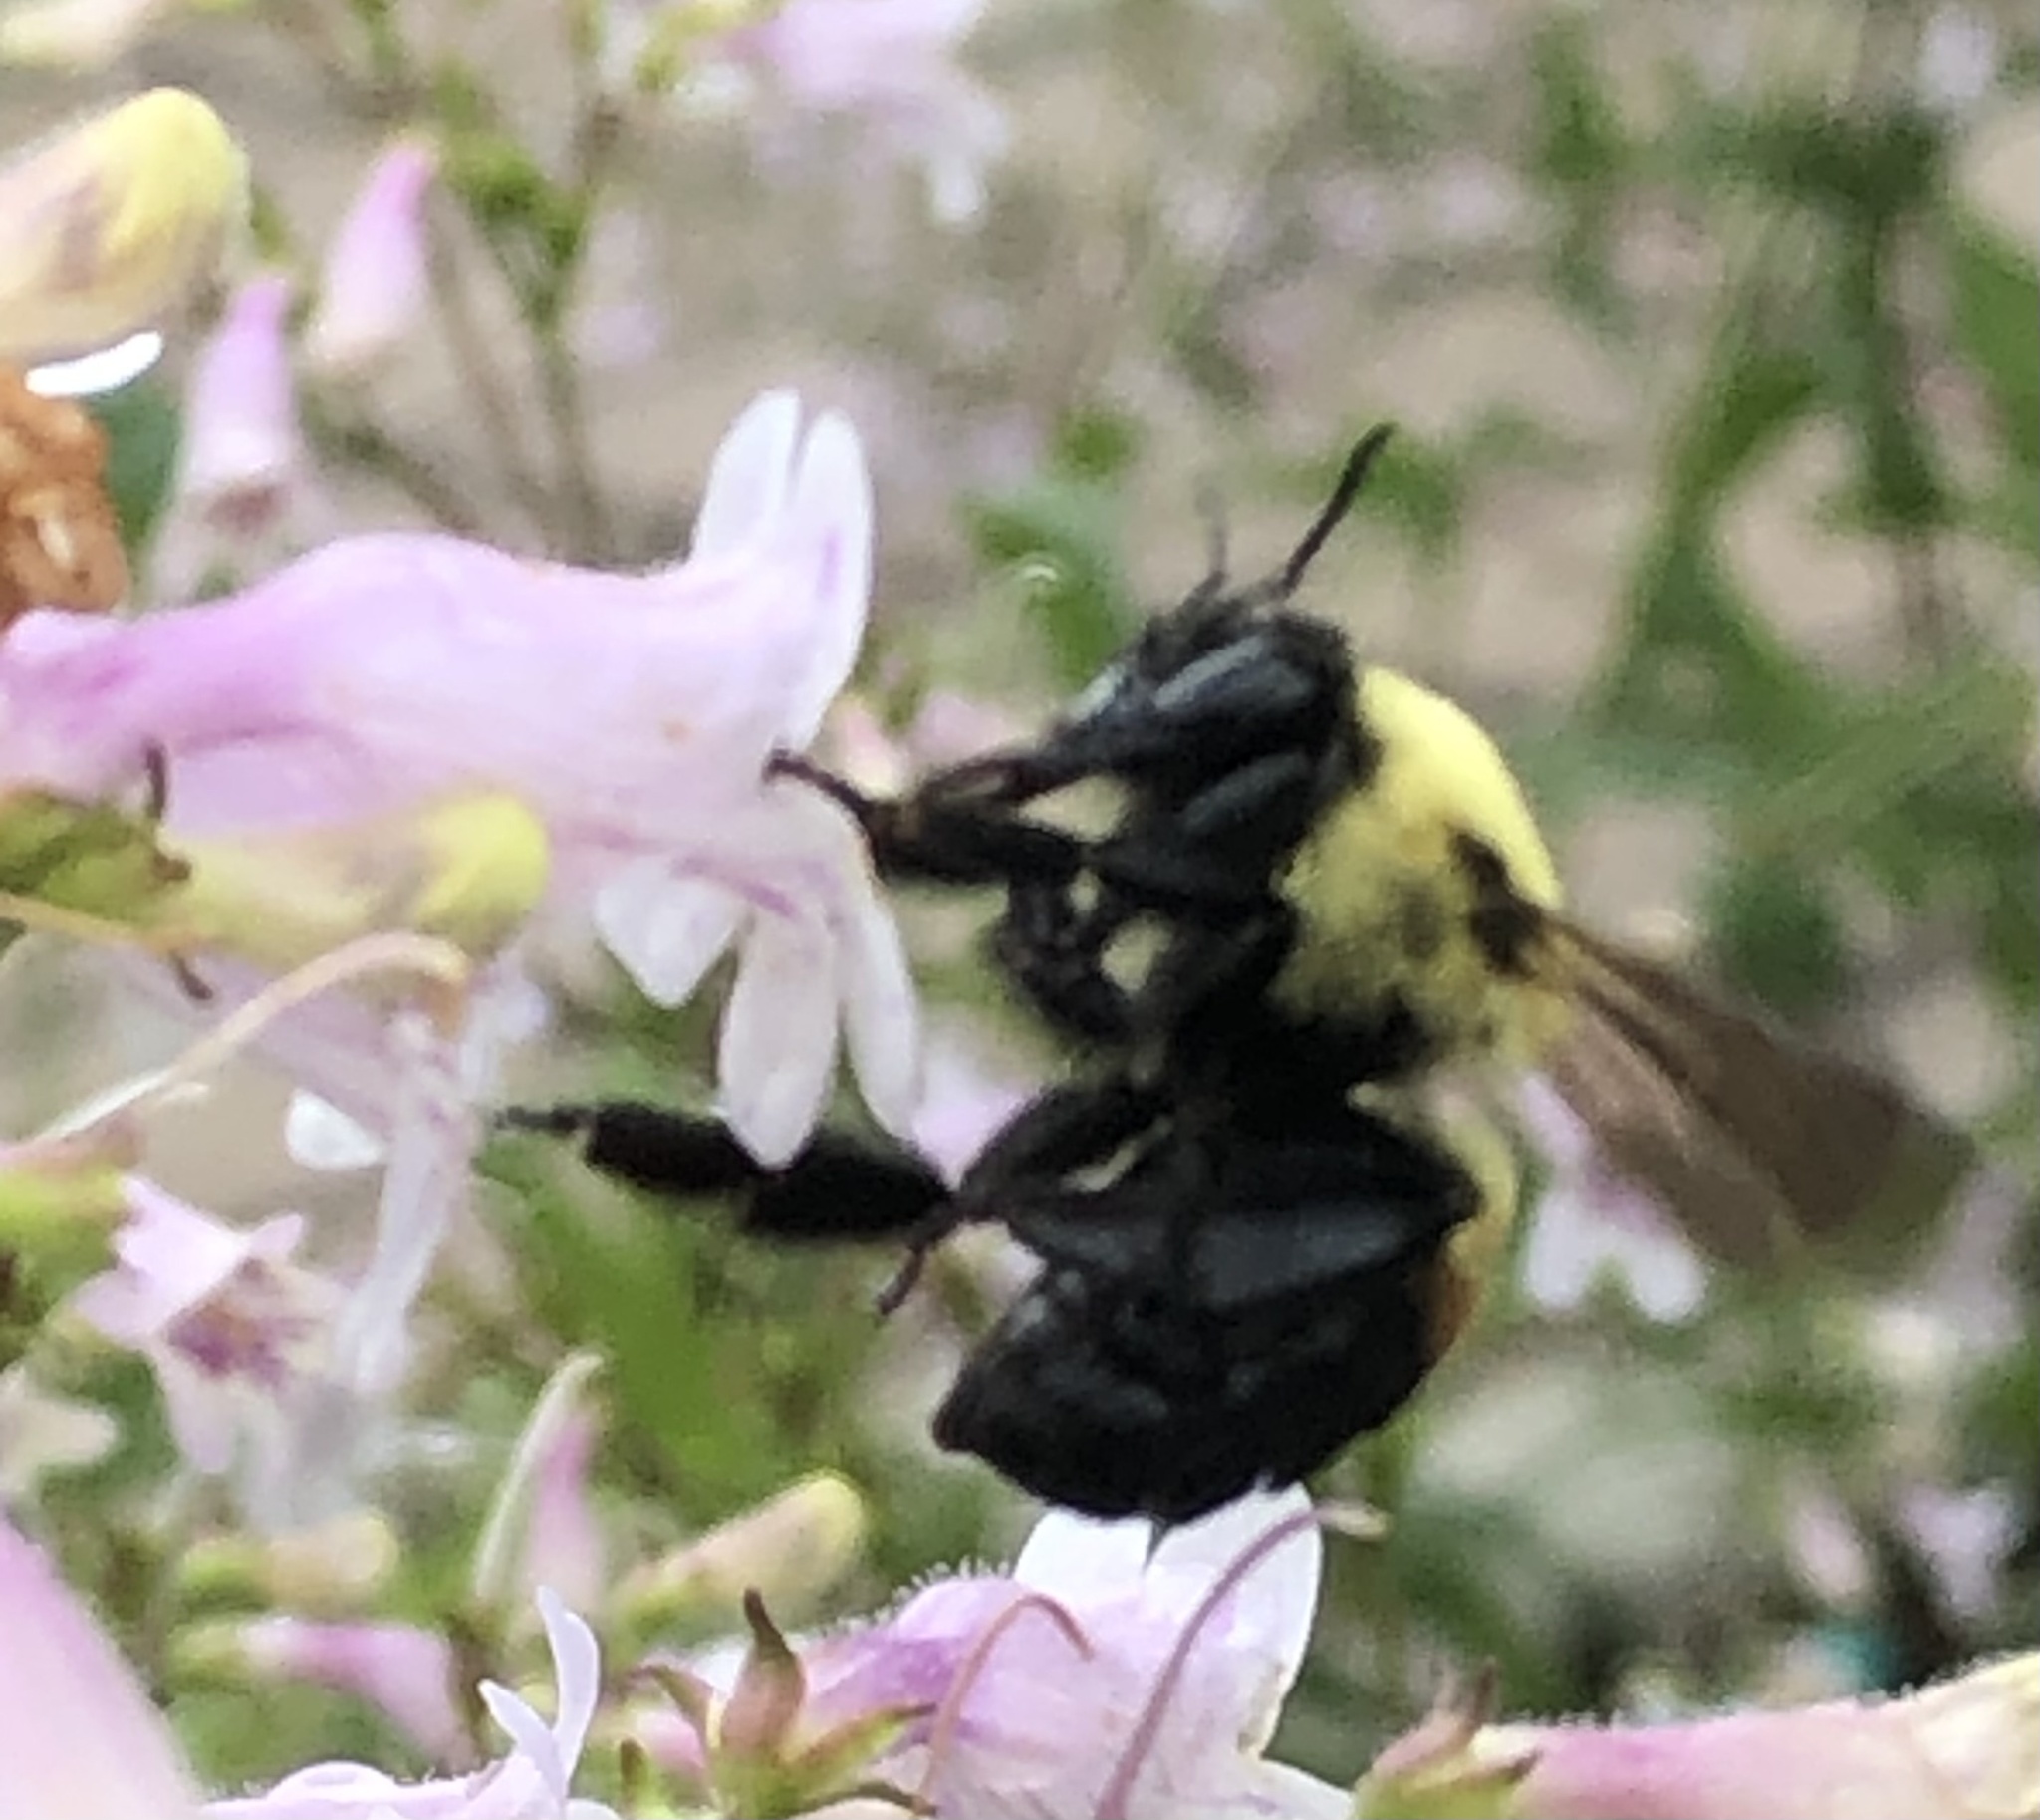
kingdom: Animalia
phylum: Arthropoda
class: Insecta
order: Hymenoptera
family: Apidae
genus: Bombus
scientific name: Bombus griseocollis
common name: Brown-belted bumble bee
